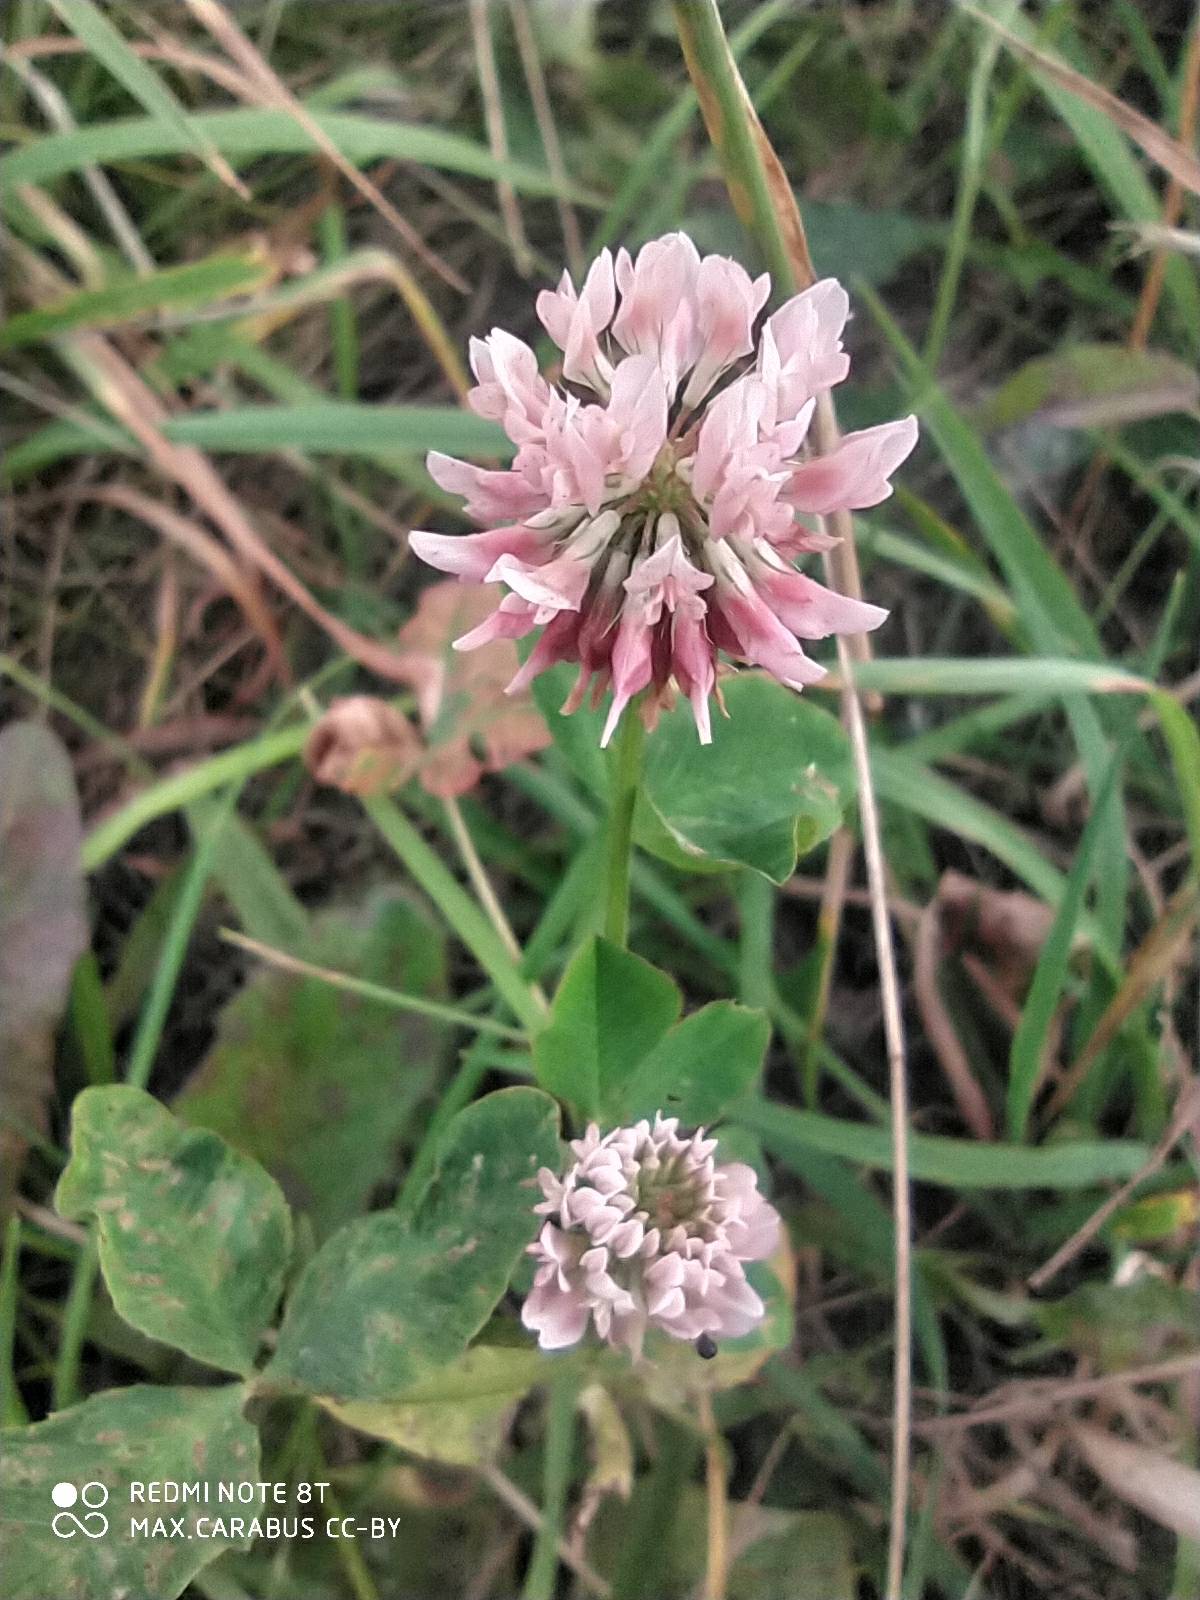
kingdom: Plantae
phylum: Tracheophyta
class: Magnoliopsida
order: Fabales
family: Fabaceae
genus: Trifolium
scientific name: Trifolium hybridum
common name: Alsike clover
